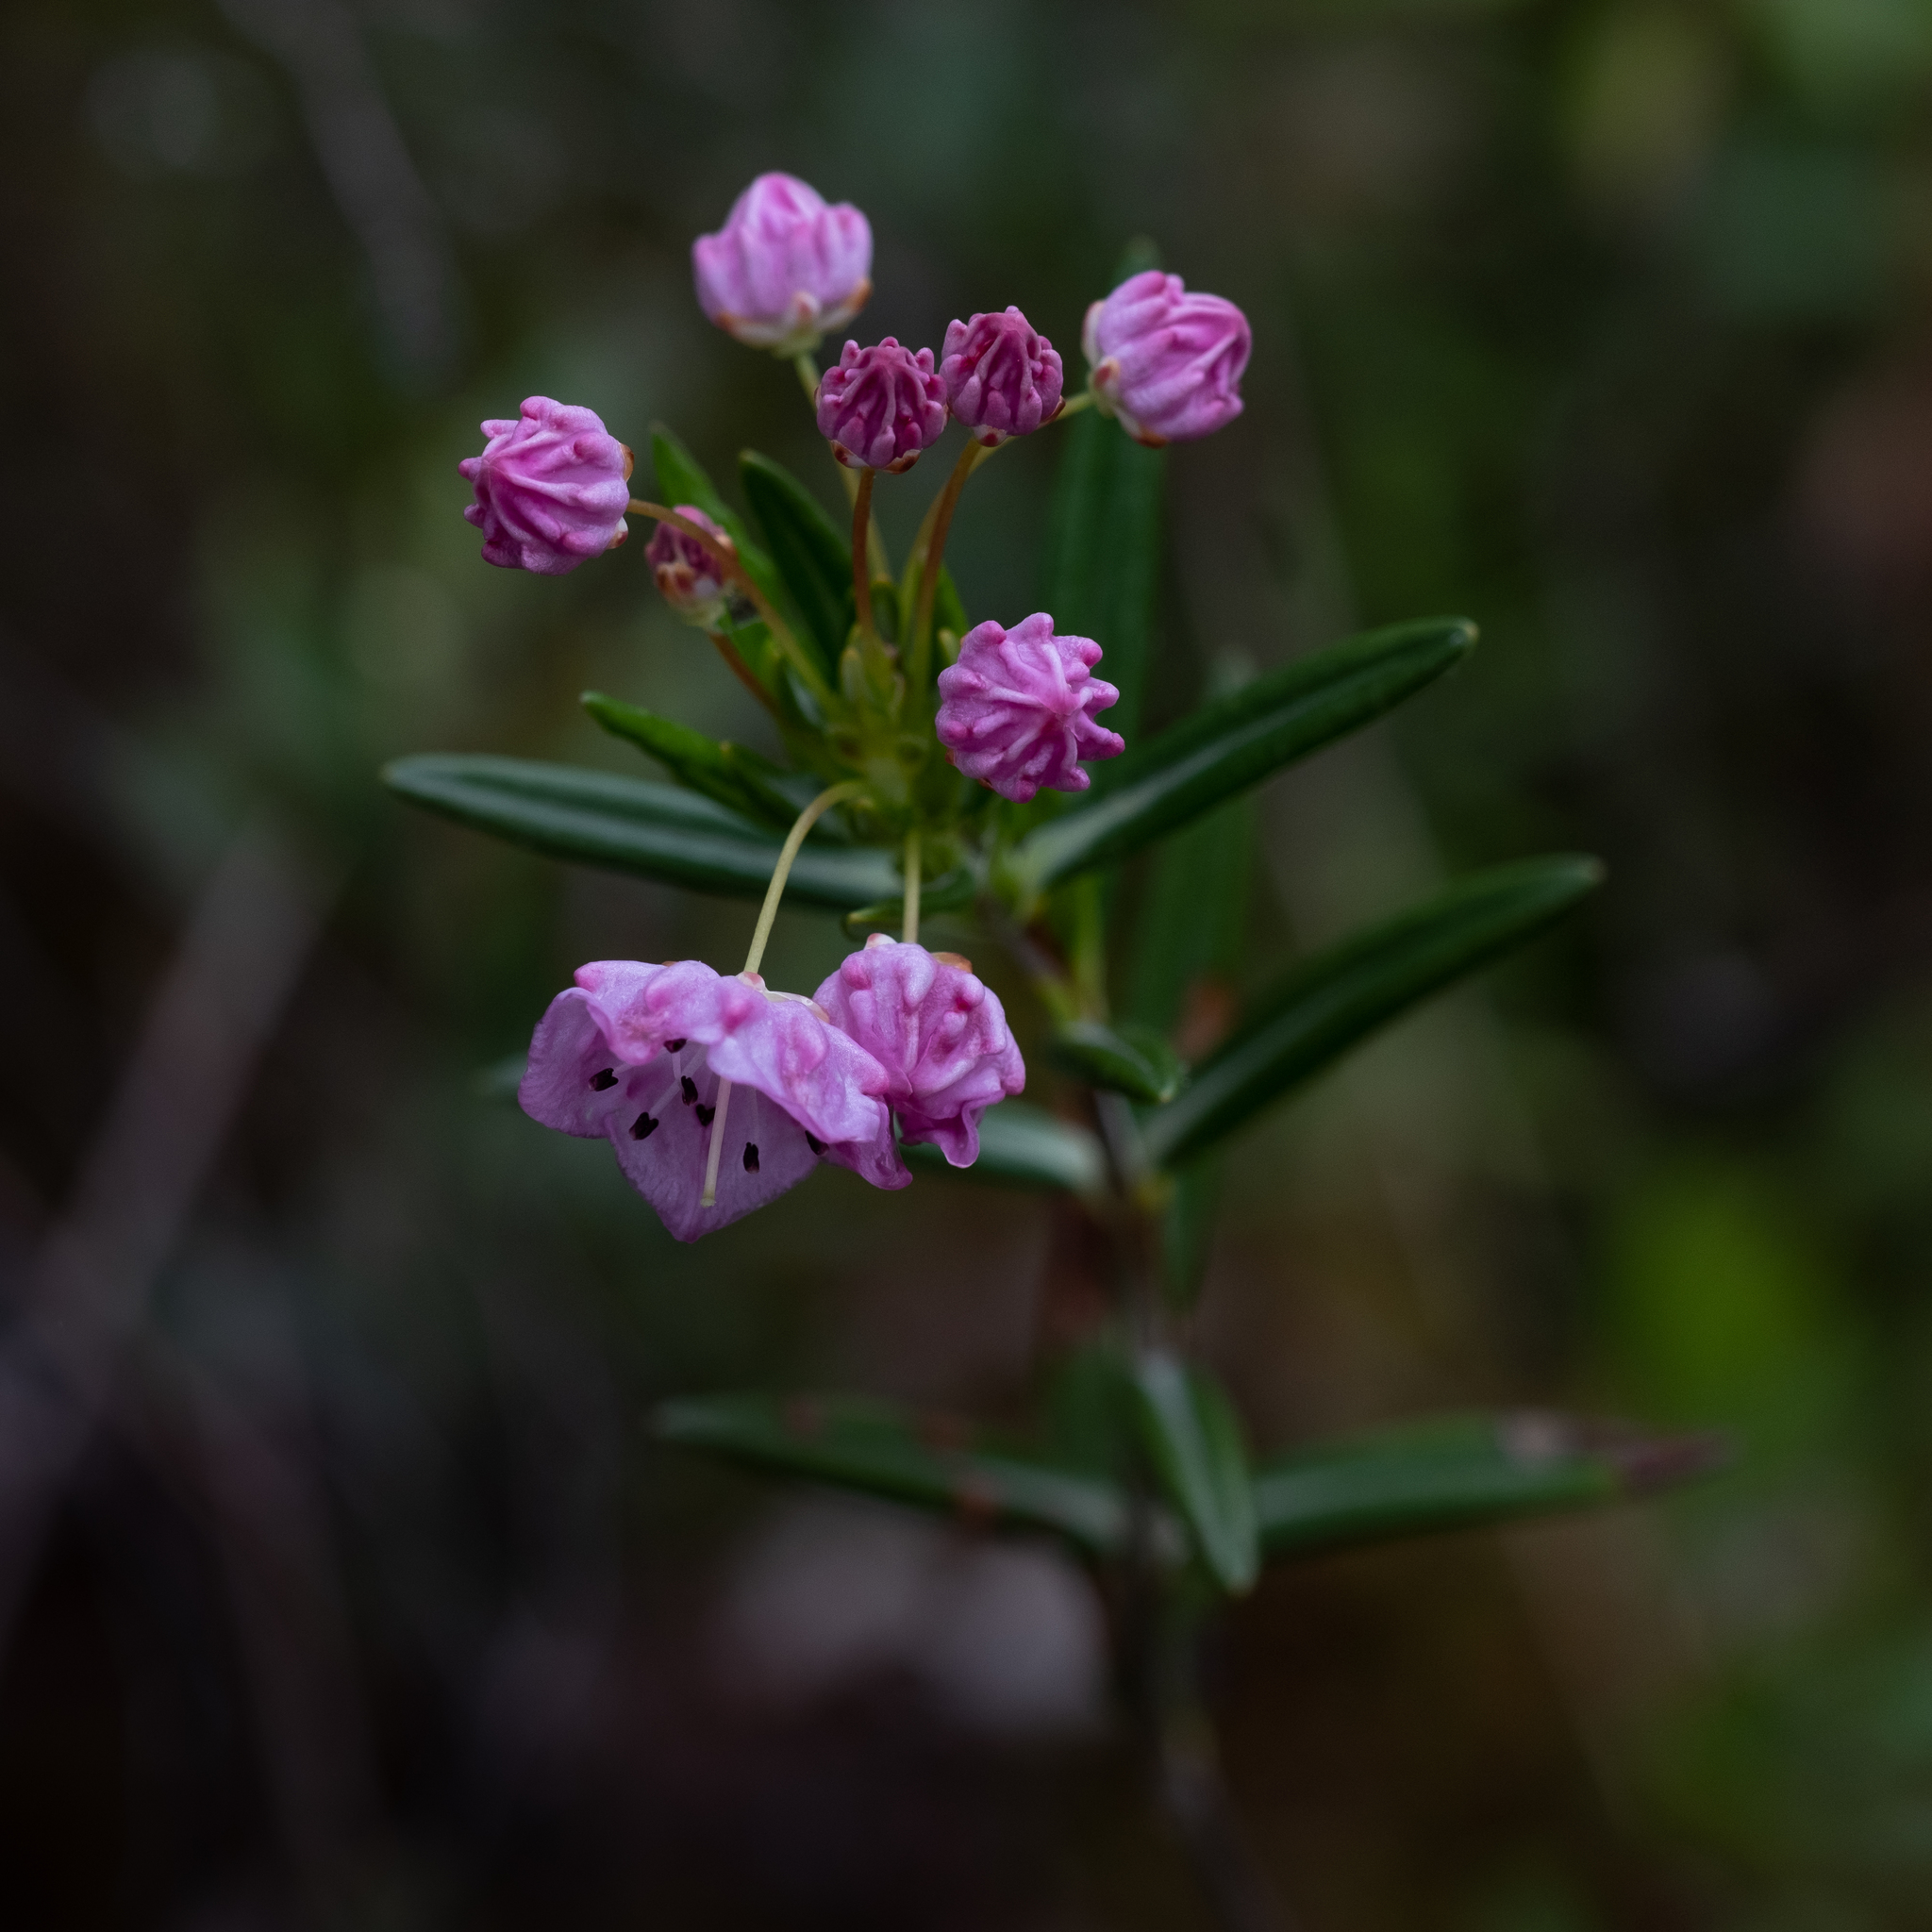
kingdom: Plantae
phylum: Tracheophyta
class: Magnoliopsida
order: Ericales
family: Ericaceae
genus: Kalmia
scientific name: Kalmia polifolia
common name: Bog-laurel
